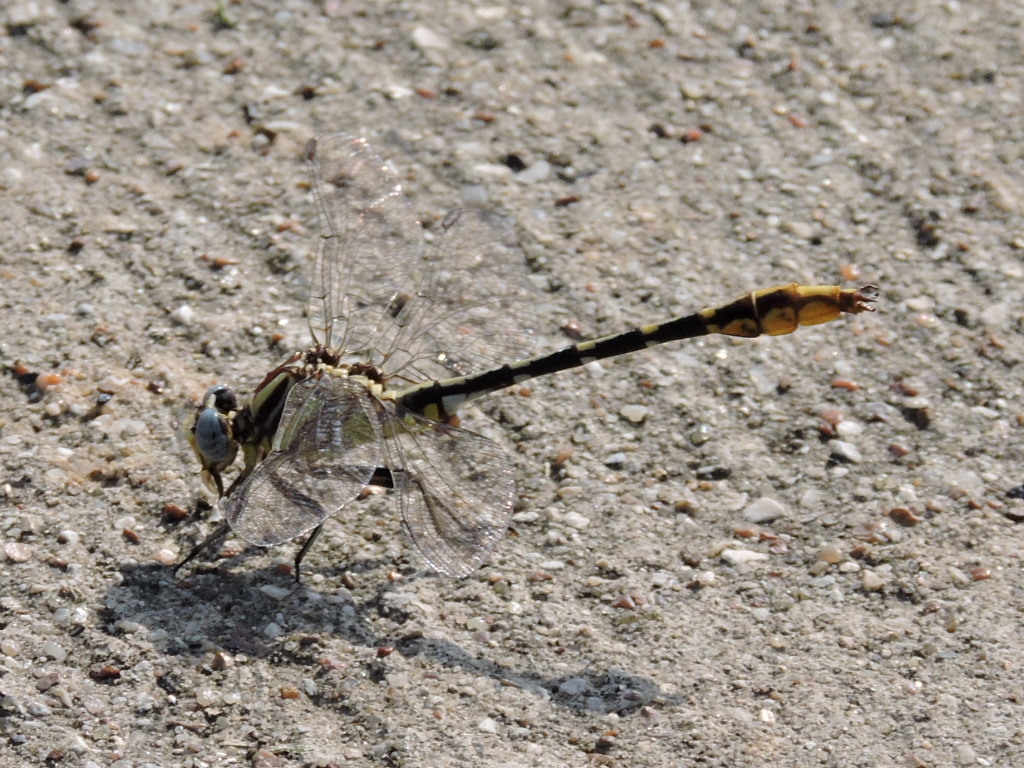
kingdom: Animalia
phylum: Arthropoda
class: Insecta
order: Odonata
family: Gomphidae
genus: Phanogomphus
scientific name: Phanogomphus militaris
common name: Sulphur-tipped clubtail
